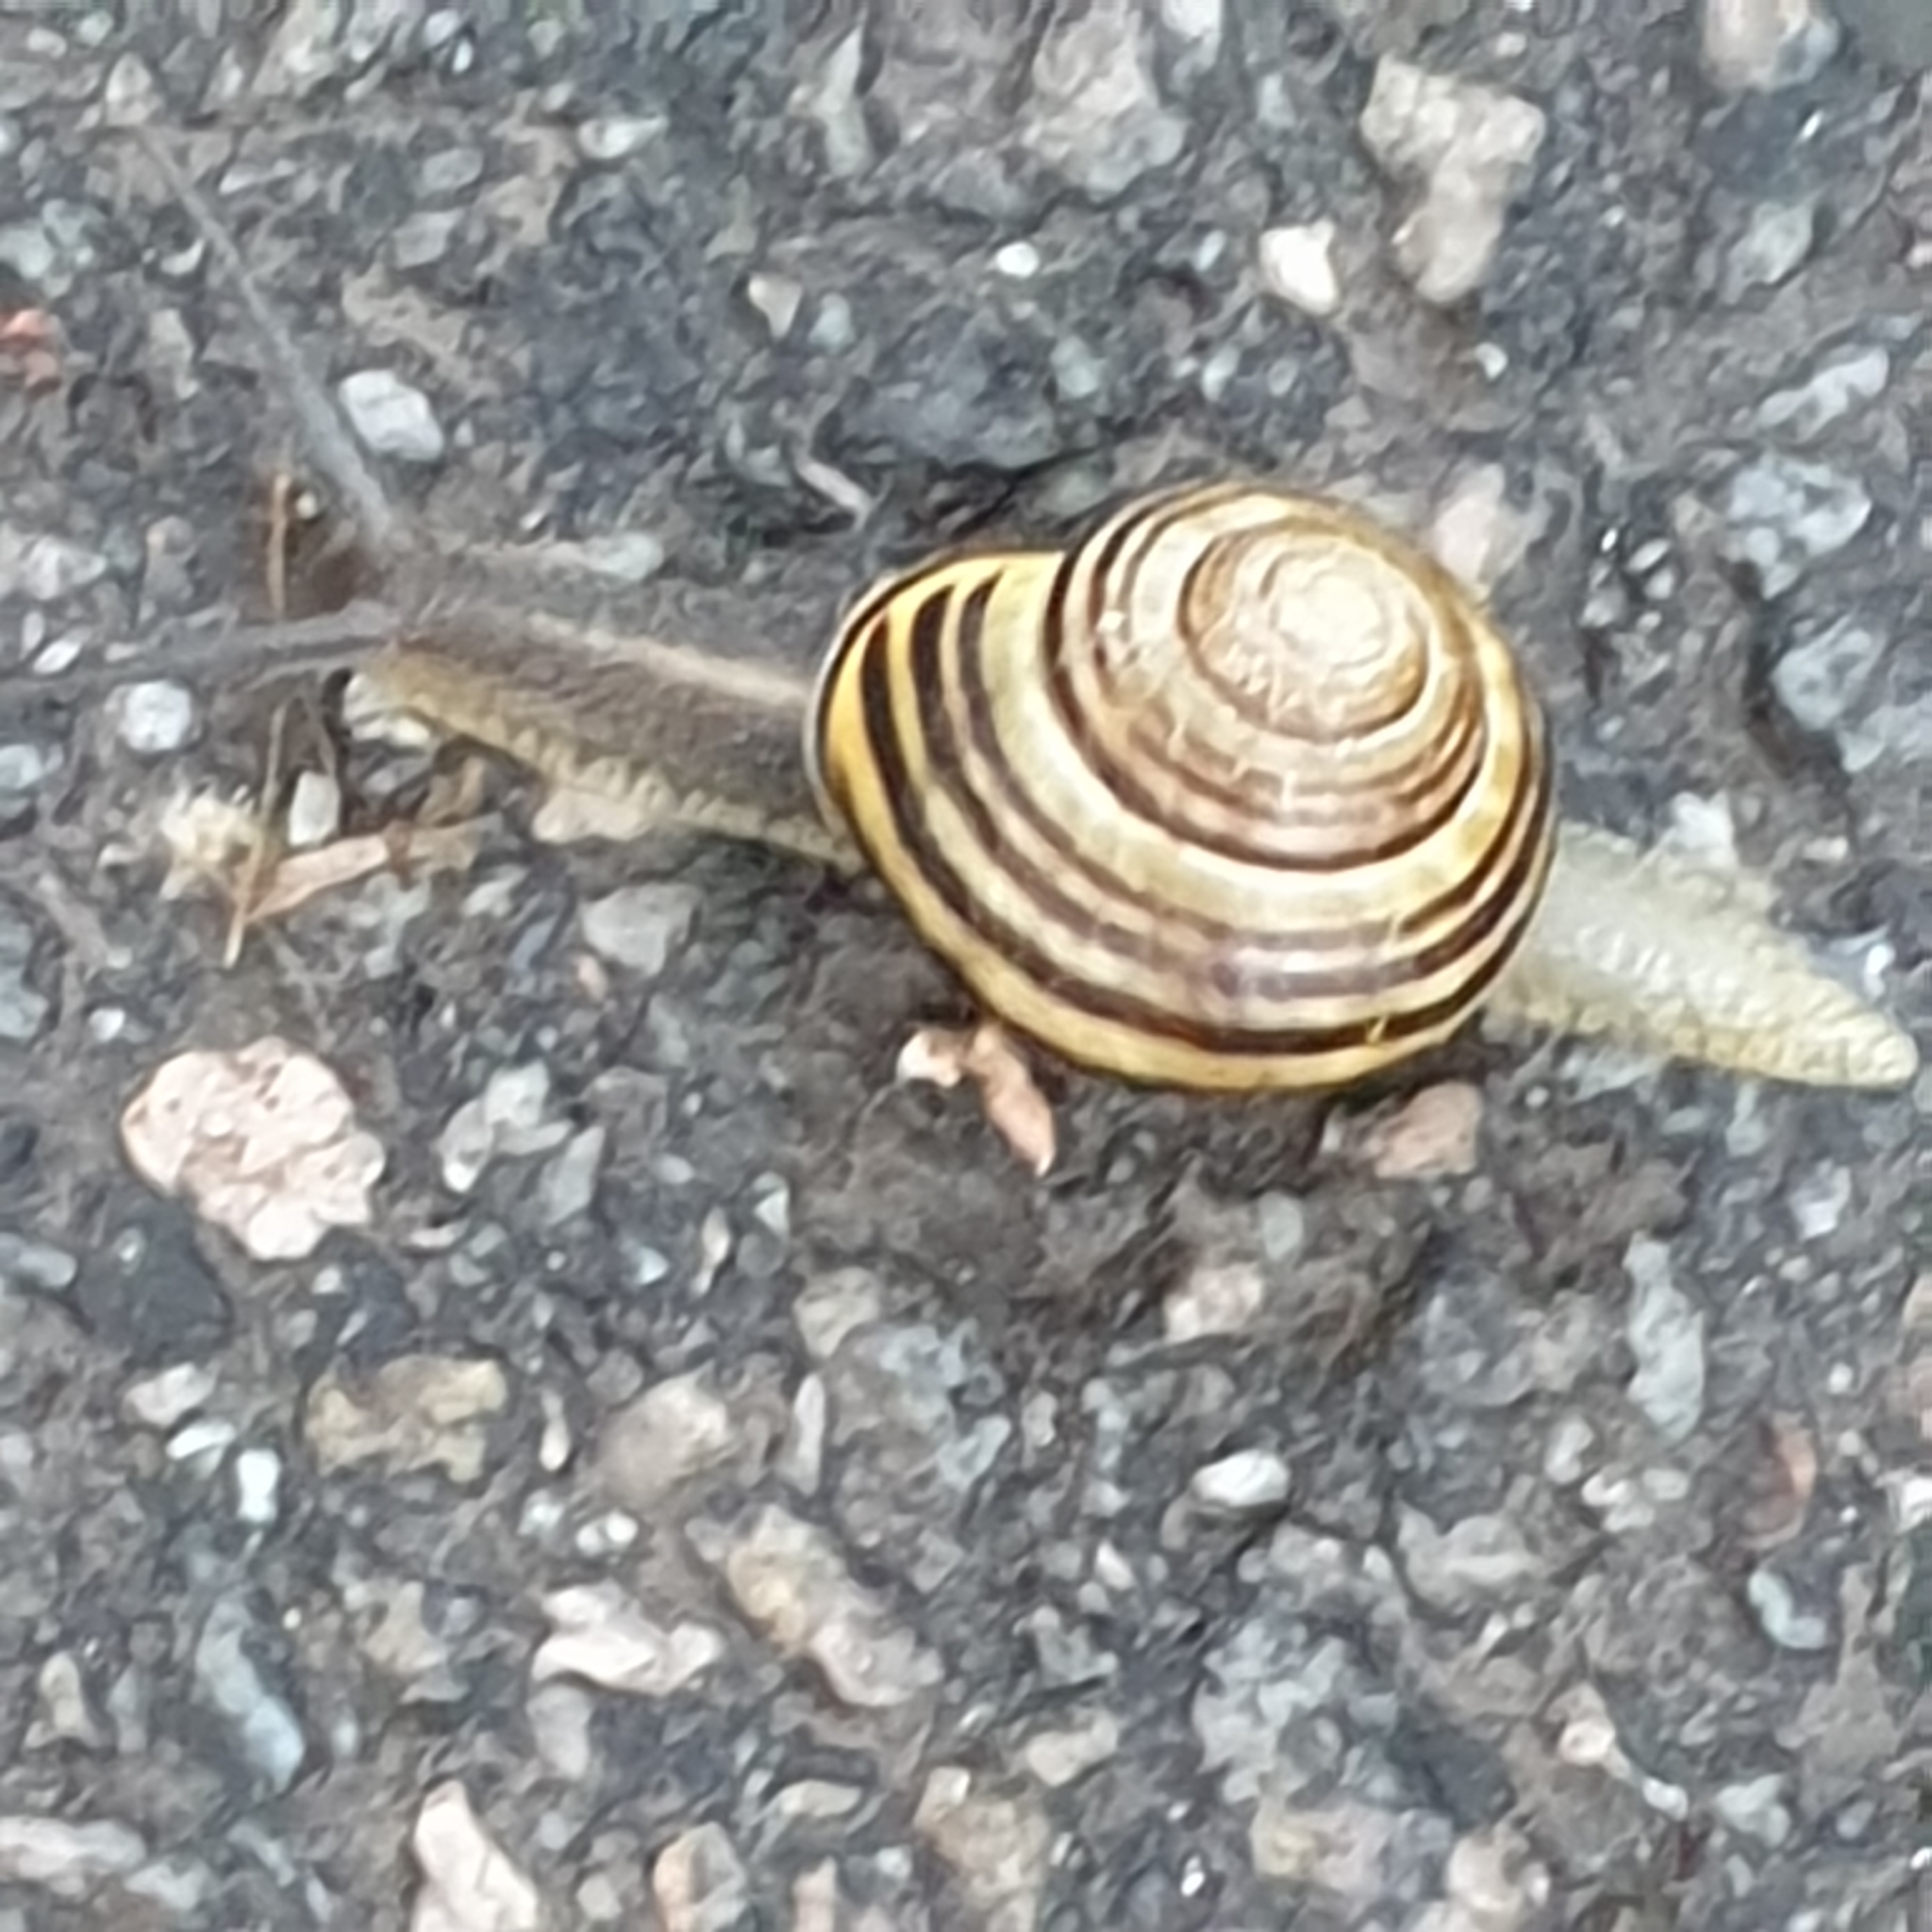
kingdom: Animalia
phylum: Mollusca
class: Gastropoda
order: Stylommatophora
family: Helicidae
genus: Cepaea
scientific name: Cepaea nemoralis
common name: Grovesnail
